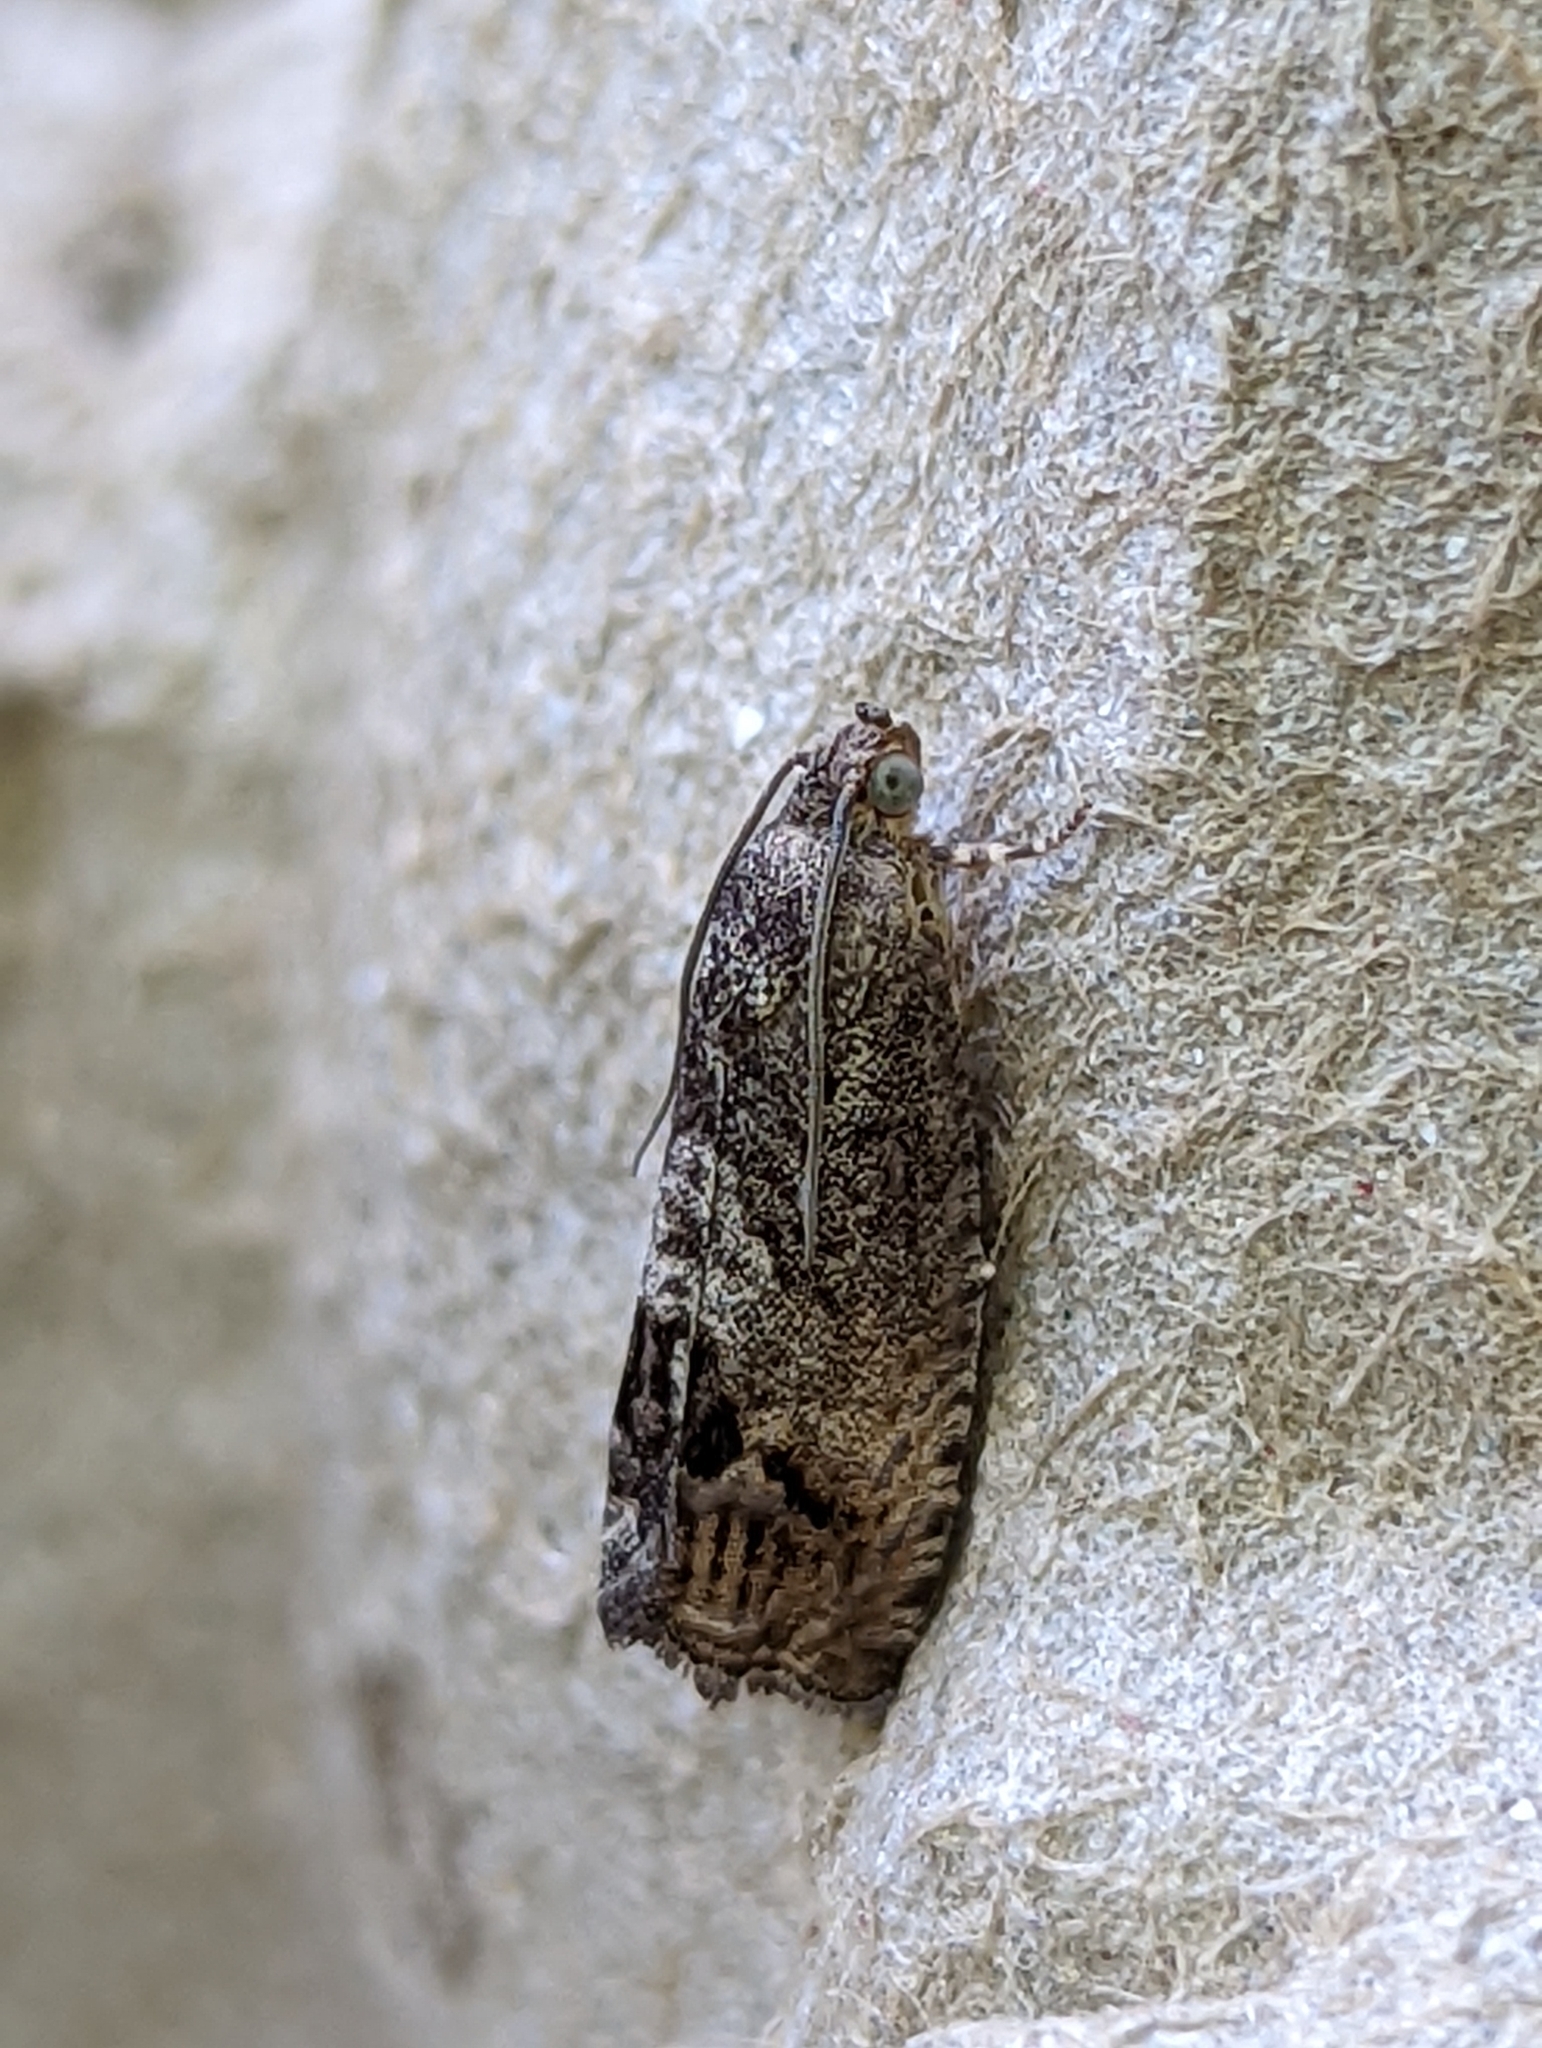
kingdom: Animalia
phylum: Arthropoda
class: Insecta
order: Lepidoptera
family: Tortricidae
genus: Cydia
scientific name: Cydia splendana
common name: De: kastanienwickler, eichenwickler es: oruga de la castaña fr: carpocapse des châtaignes it: cidia o tortrice tardiva delle castagne pt: bichado das castanhas gb: acorn moth, chestnut fruit tortrix
